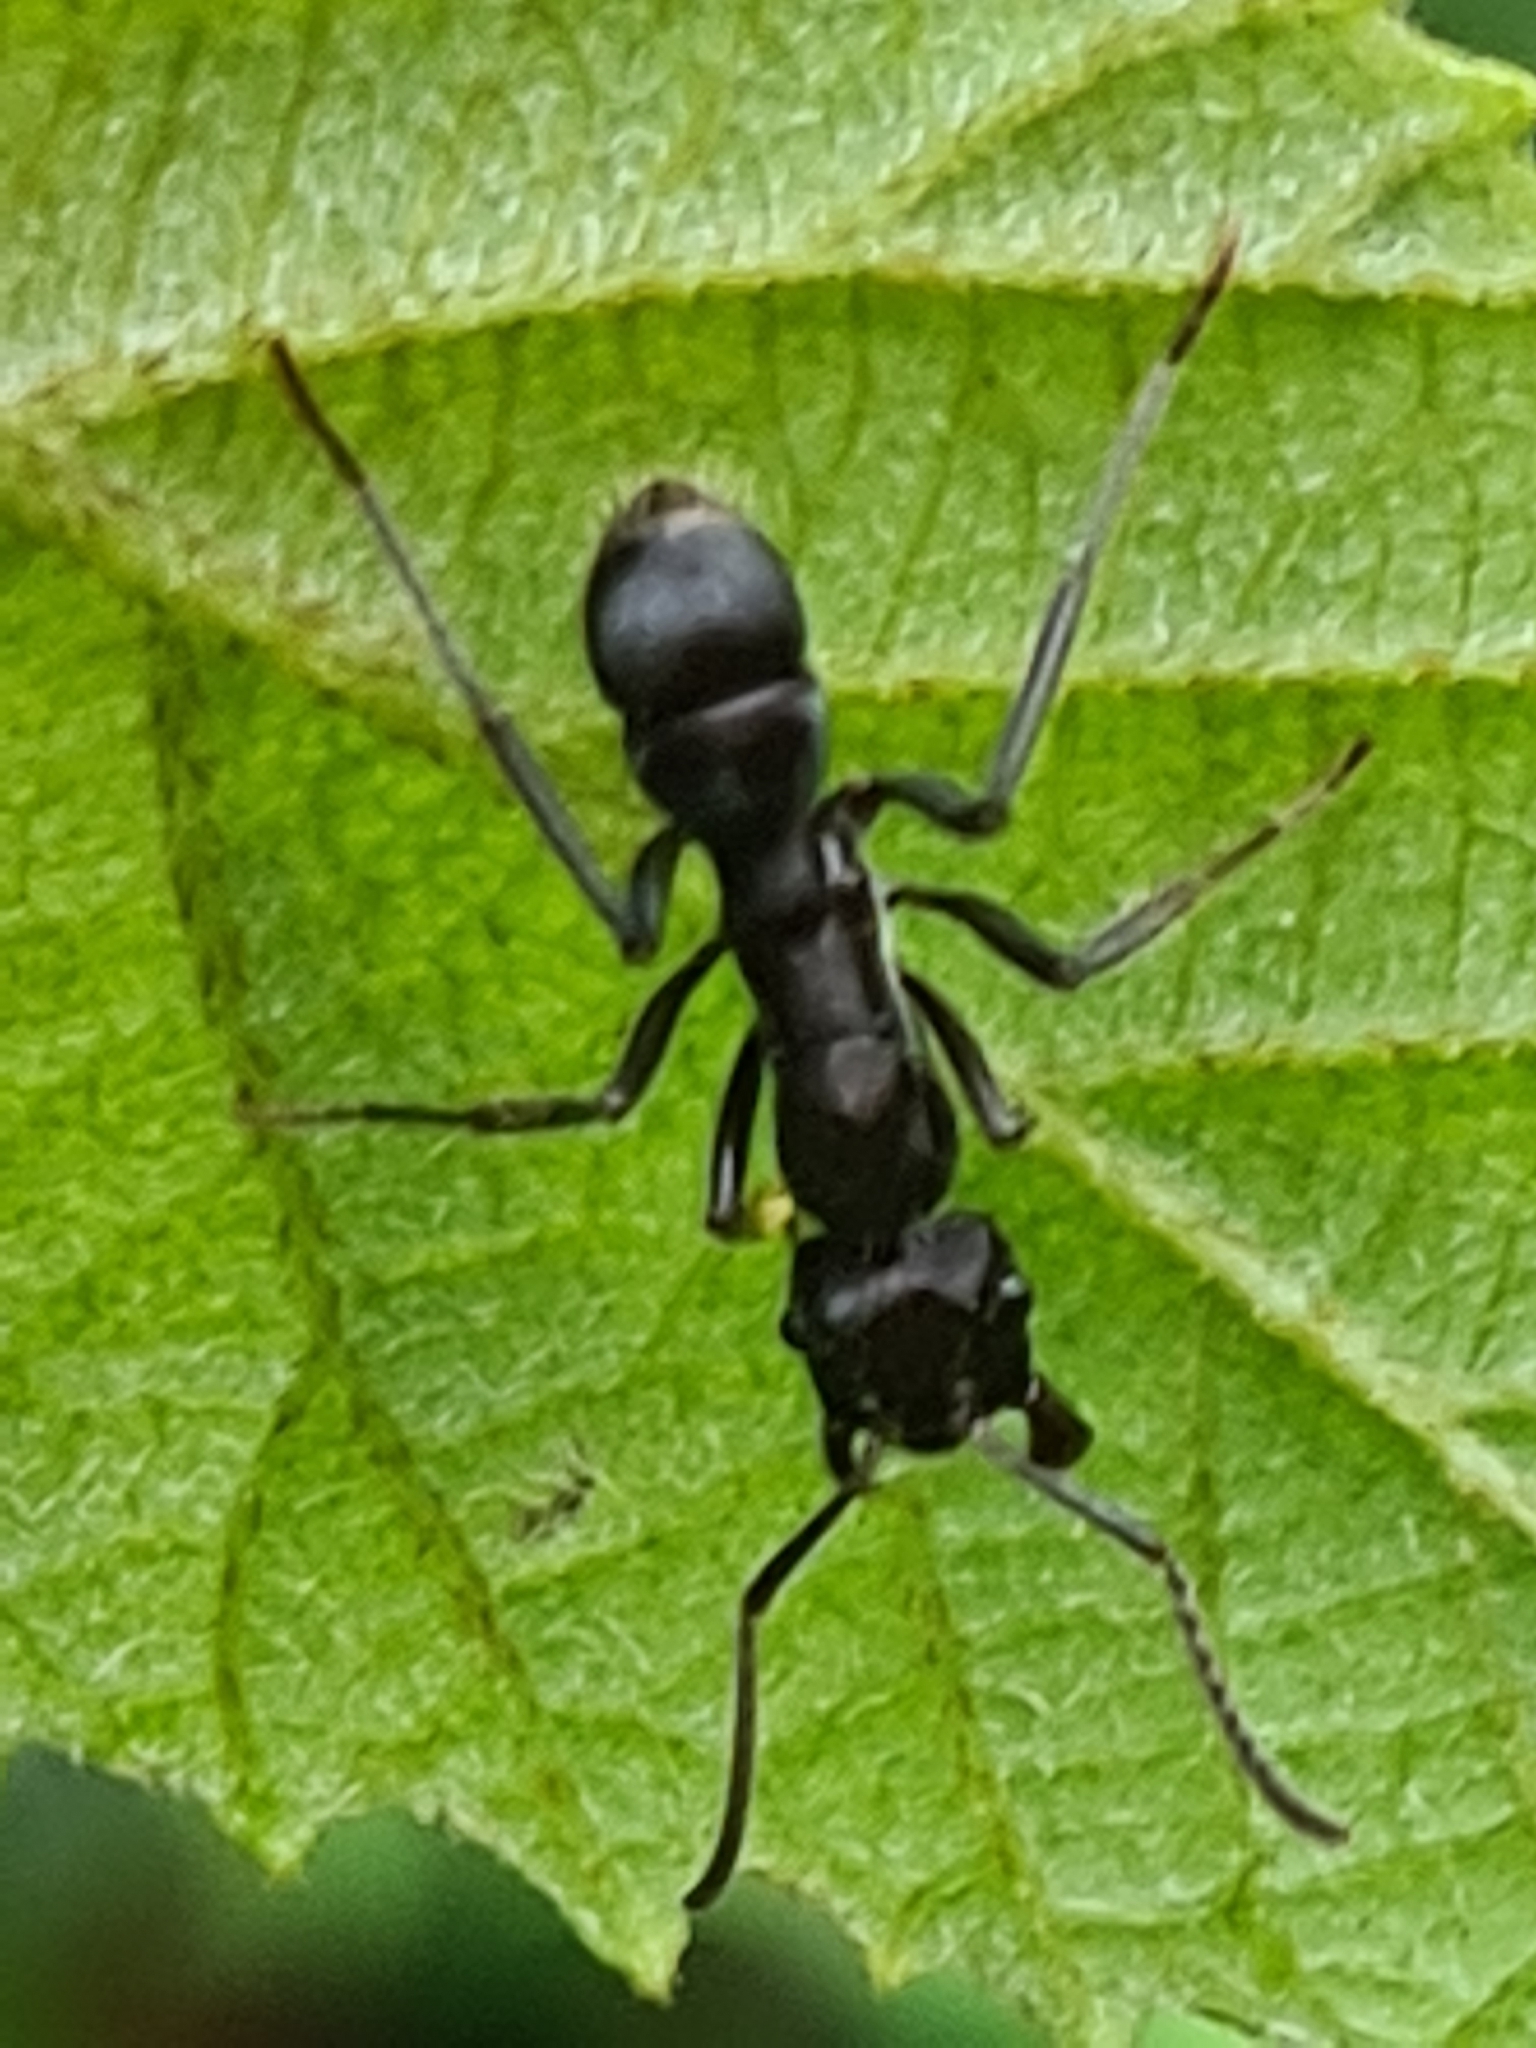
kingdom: Animalia
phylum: Arthropoda
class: Insecta
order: Hymenoptera
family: Formicidae
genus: Ectatomma
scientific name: Ectatomma brunneum
